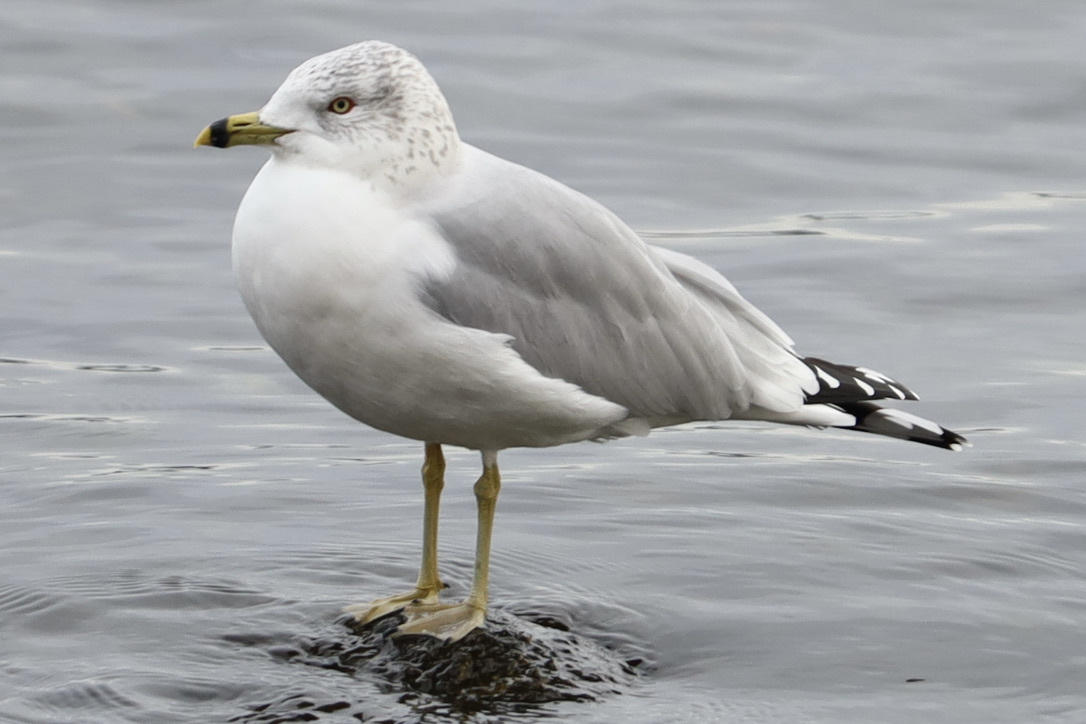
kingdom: Animalia
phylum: Chordata
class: Aves
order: Charadriiformes
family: Laridae
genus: Larus
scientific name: Larus delawarensis
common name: Ring-billed gull
